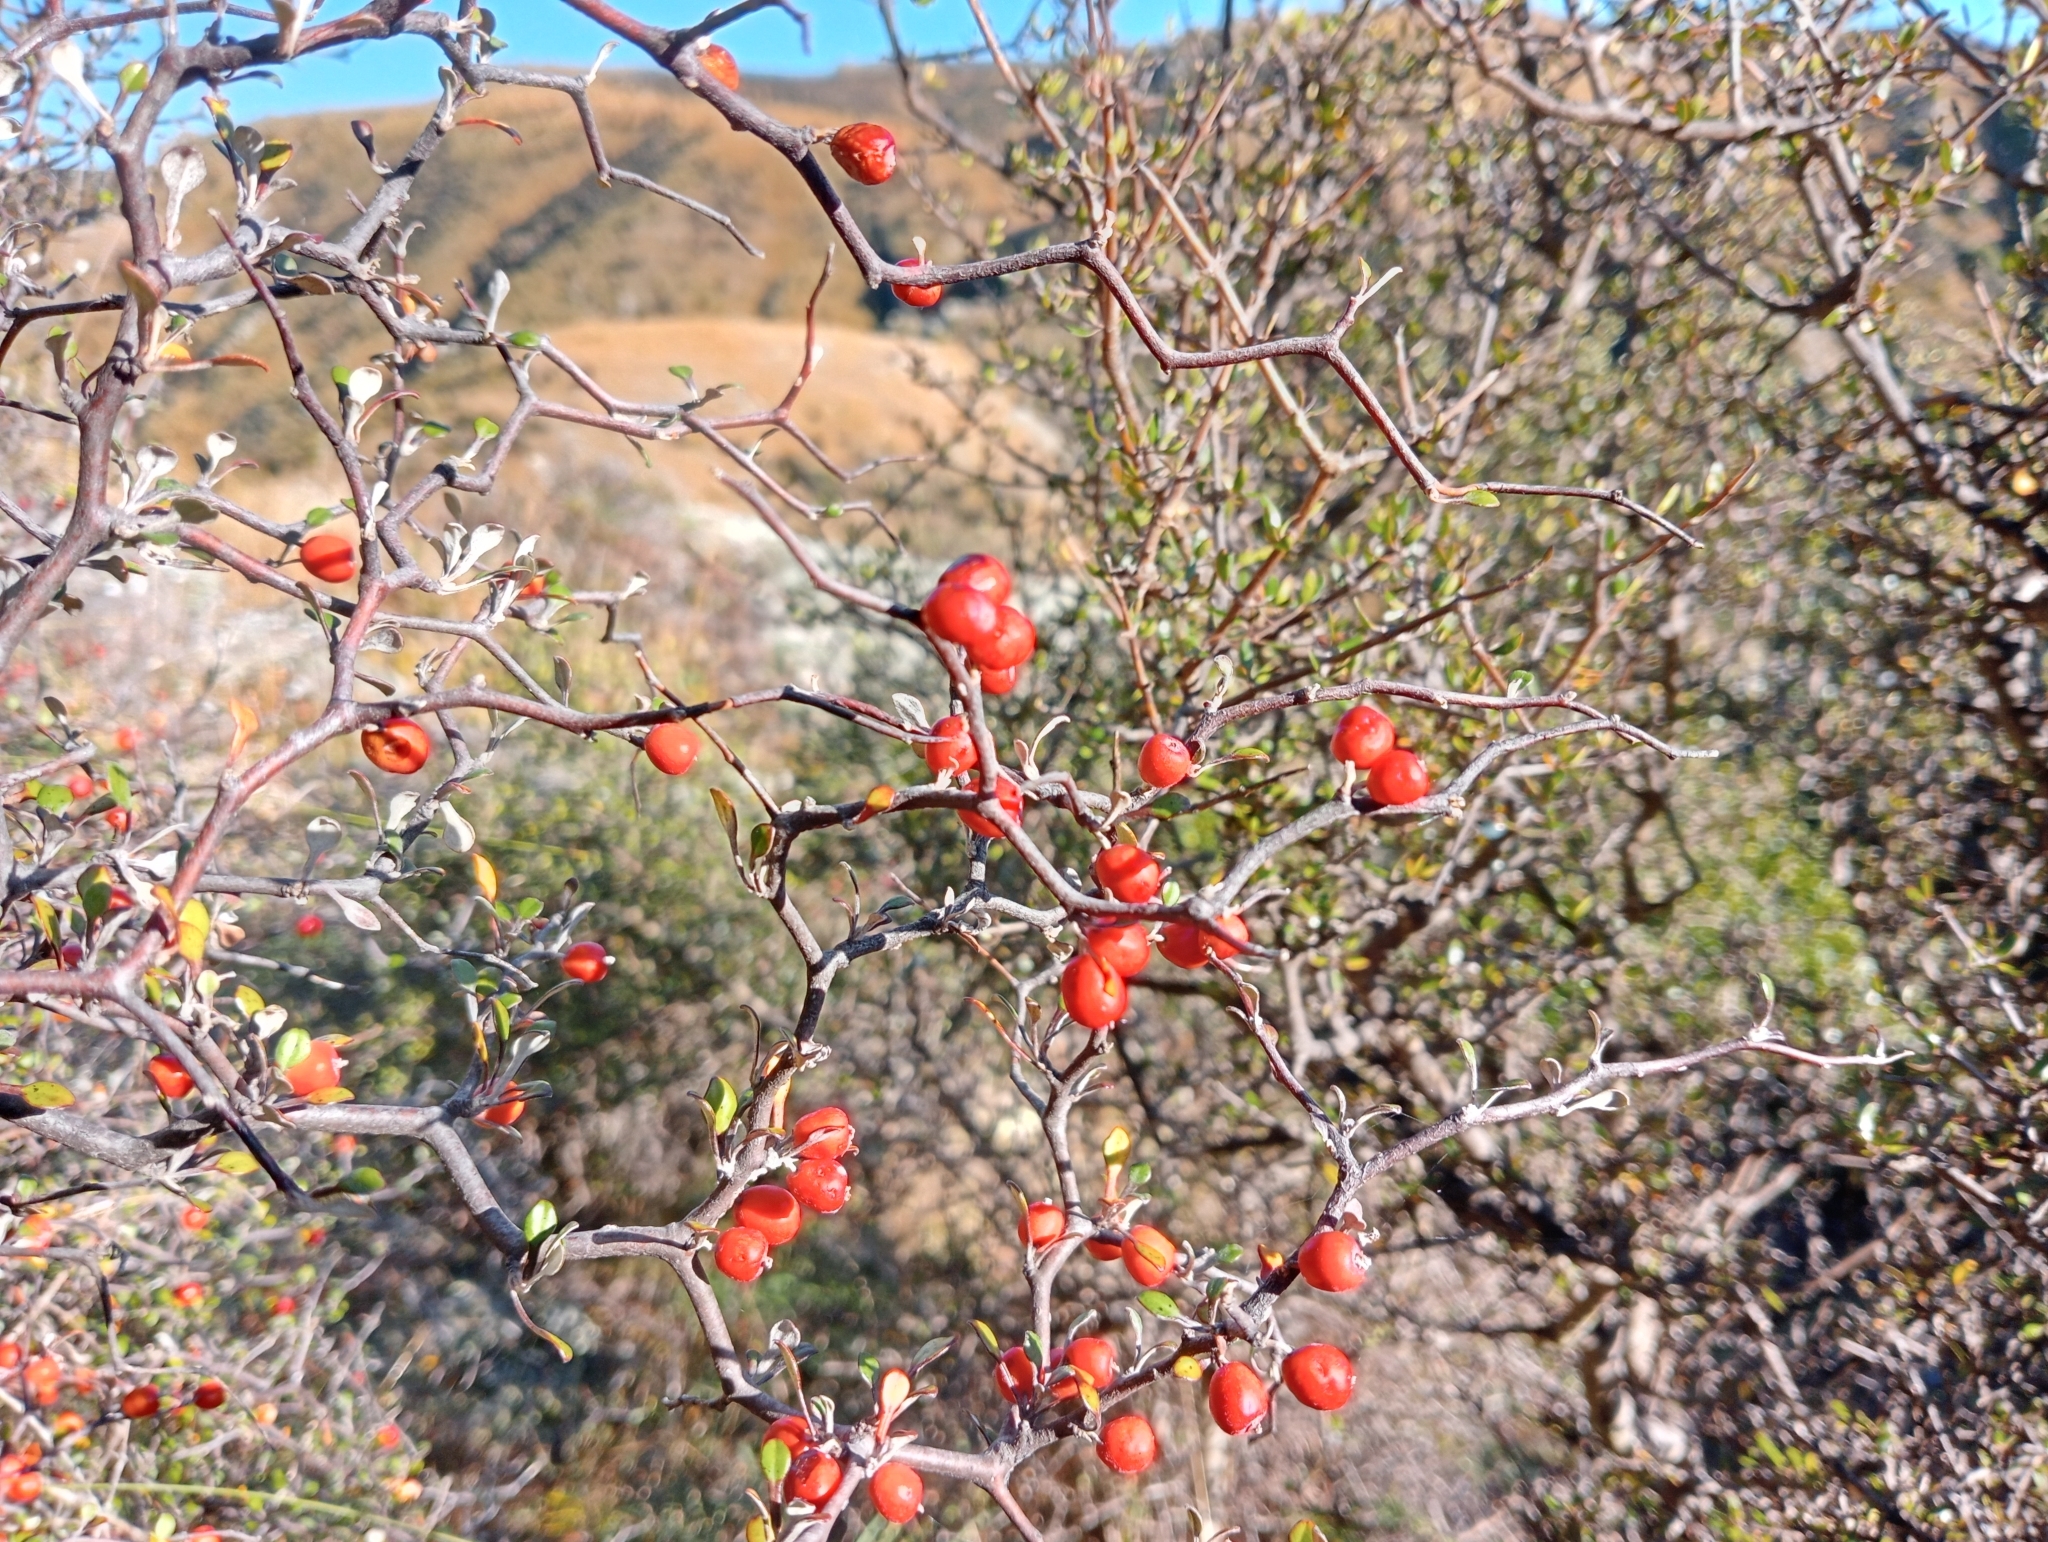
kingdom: Plantae
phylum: Tracheophyta
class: Magnoliopsida
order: Asterales
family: Argophyllaceae
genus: Corokia
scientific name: Corokia cotoneaster
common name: Wire nettingbush
